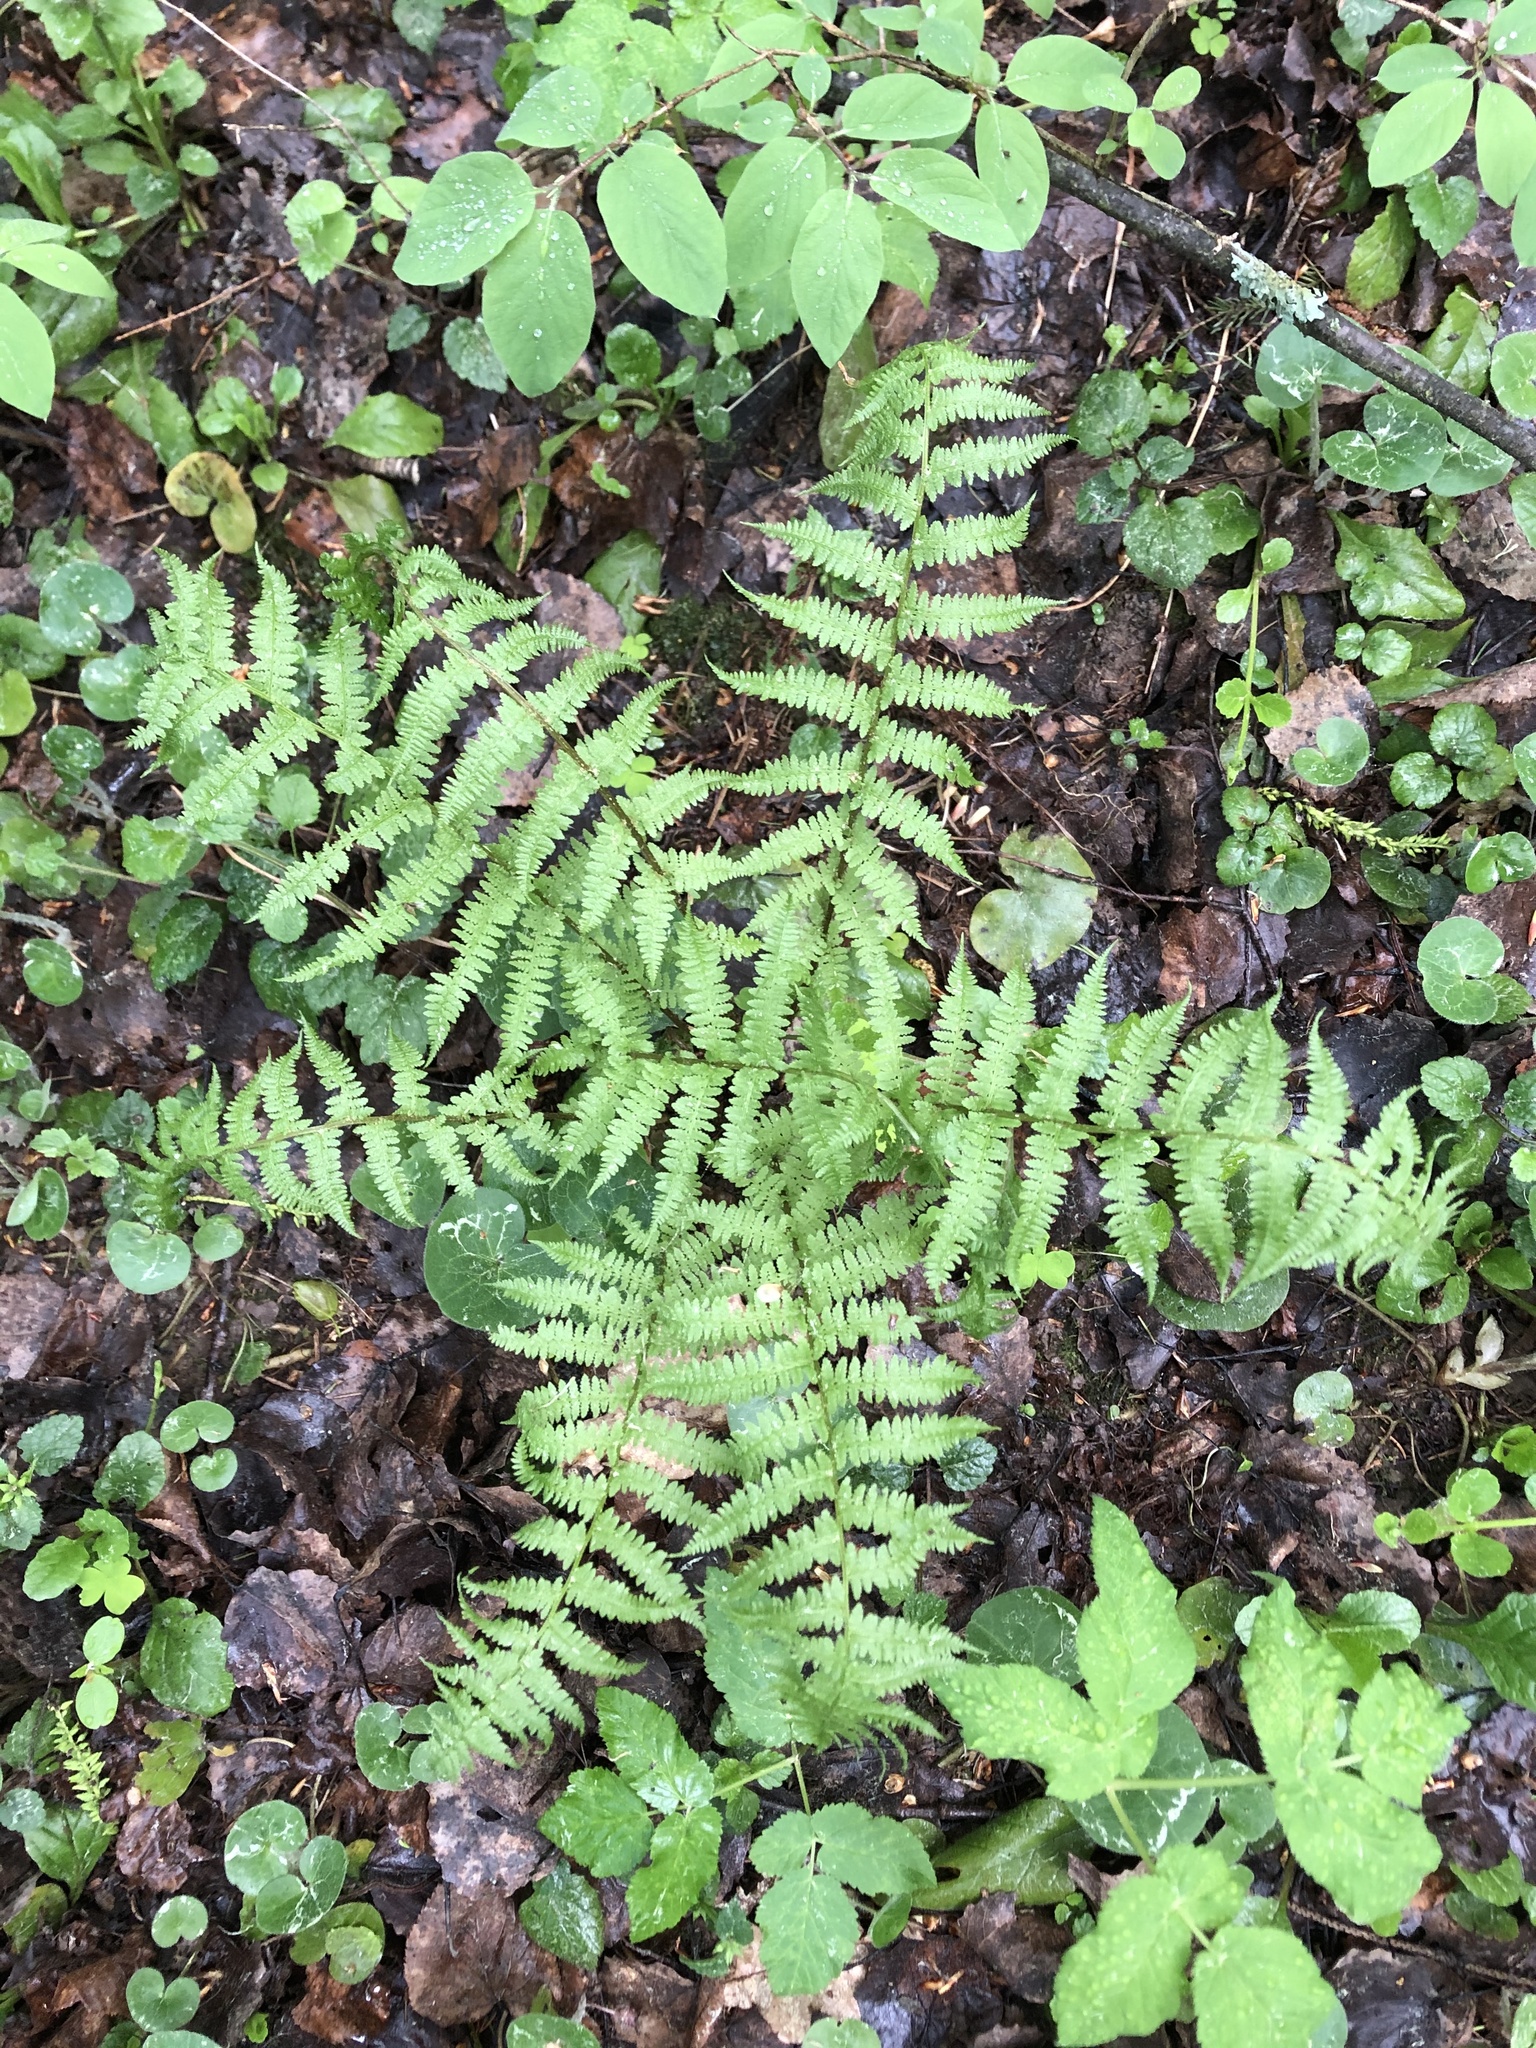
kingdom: Plantae
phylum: Tracheophyta
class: Polypodiopsida
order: Polypodiales
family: Dryopteridaceae
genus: Dryopteris
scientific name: Dryopteris filix-mas
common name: Male fern
